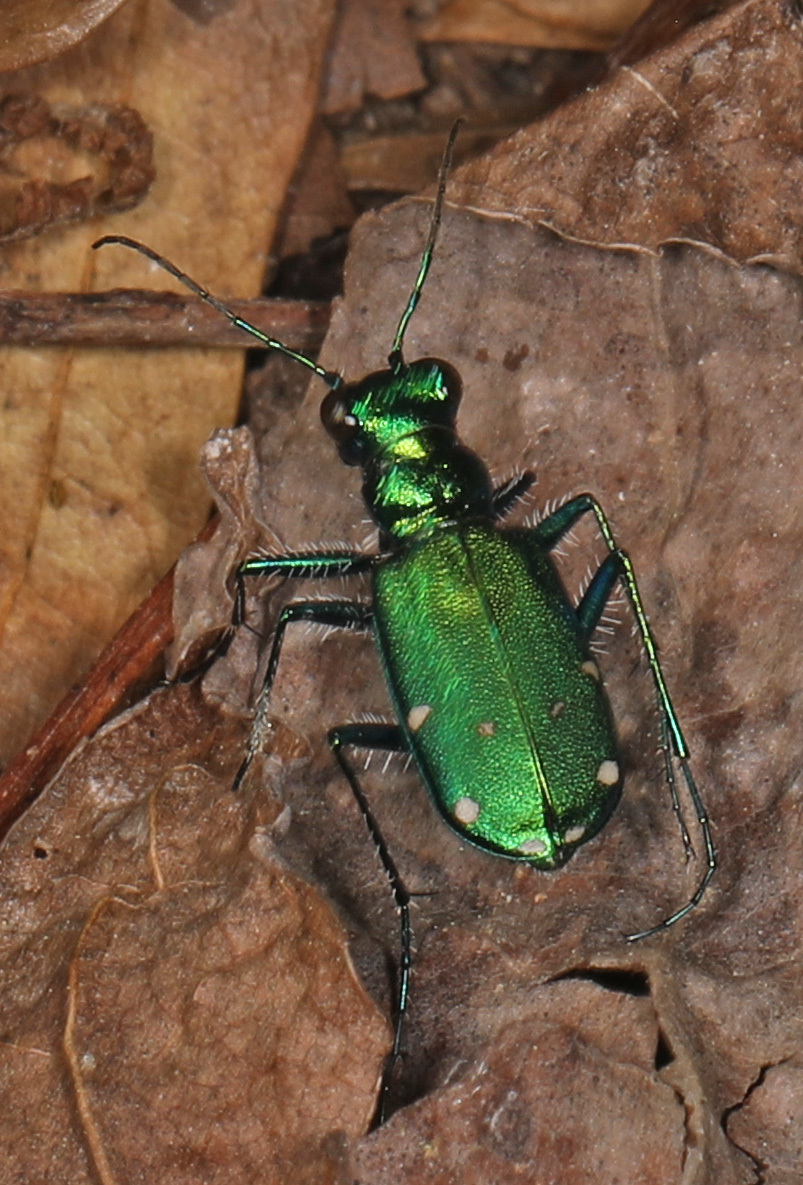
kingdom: Animalia
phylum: Arthropoda
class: Insecta
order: Coleoptera
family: Carabidae
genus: Cicindela
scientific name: Cicindela sexguttata
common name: Six-spotted tiger beetle
